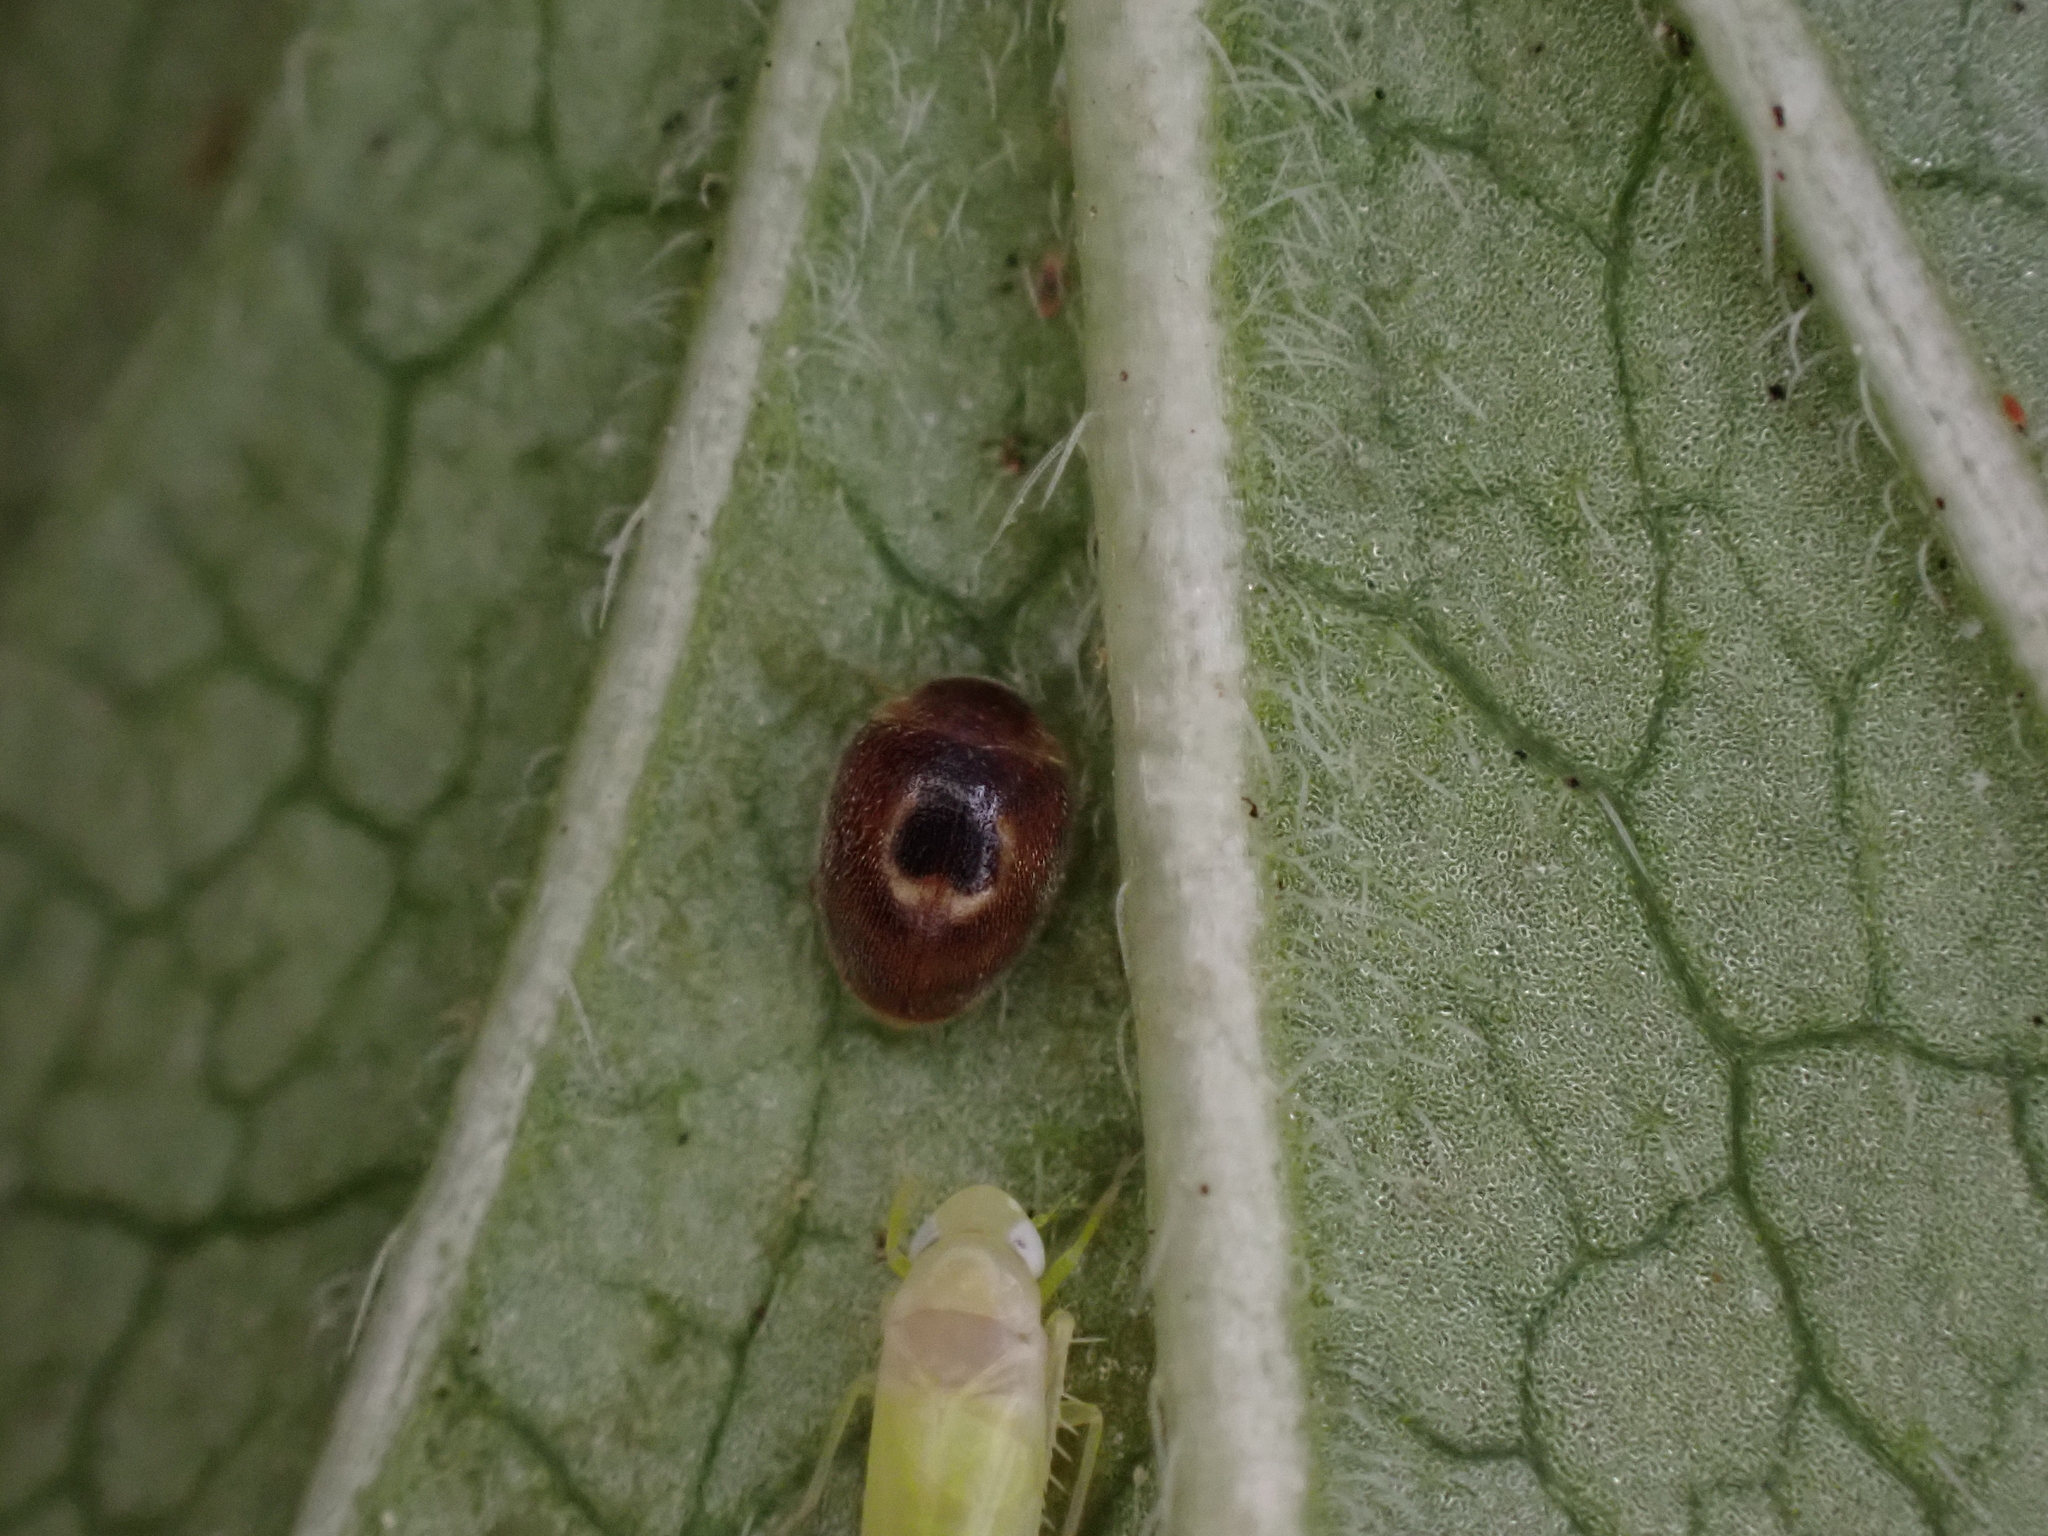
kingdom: Animalia
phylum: Arthropoda
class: Insecta
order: Coleoptera
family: Coccinellidae
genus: Clitostethus
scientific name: Clitostethus arcuatus
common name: Ladybird beetle
